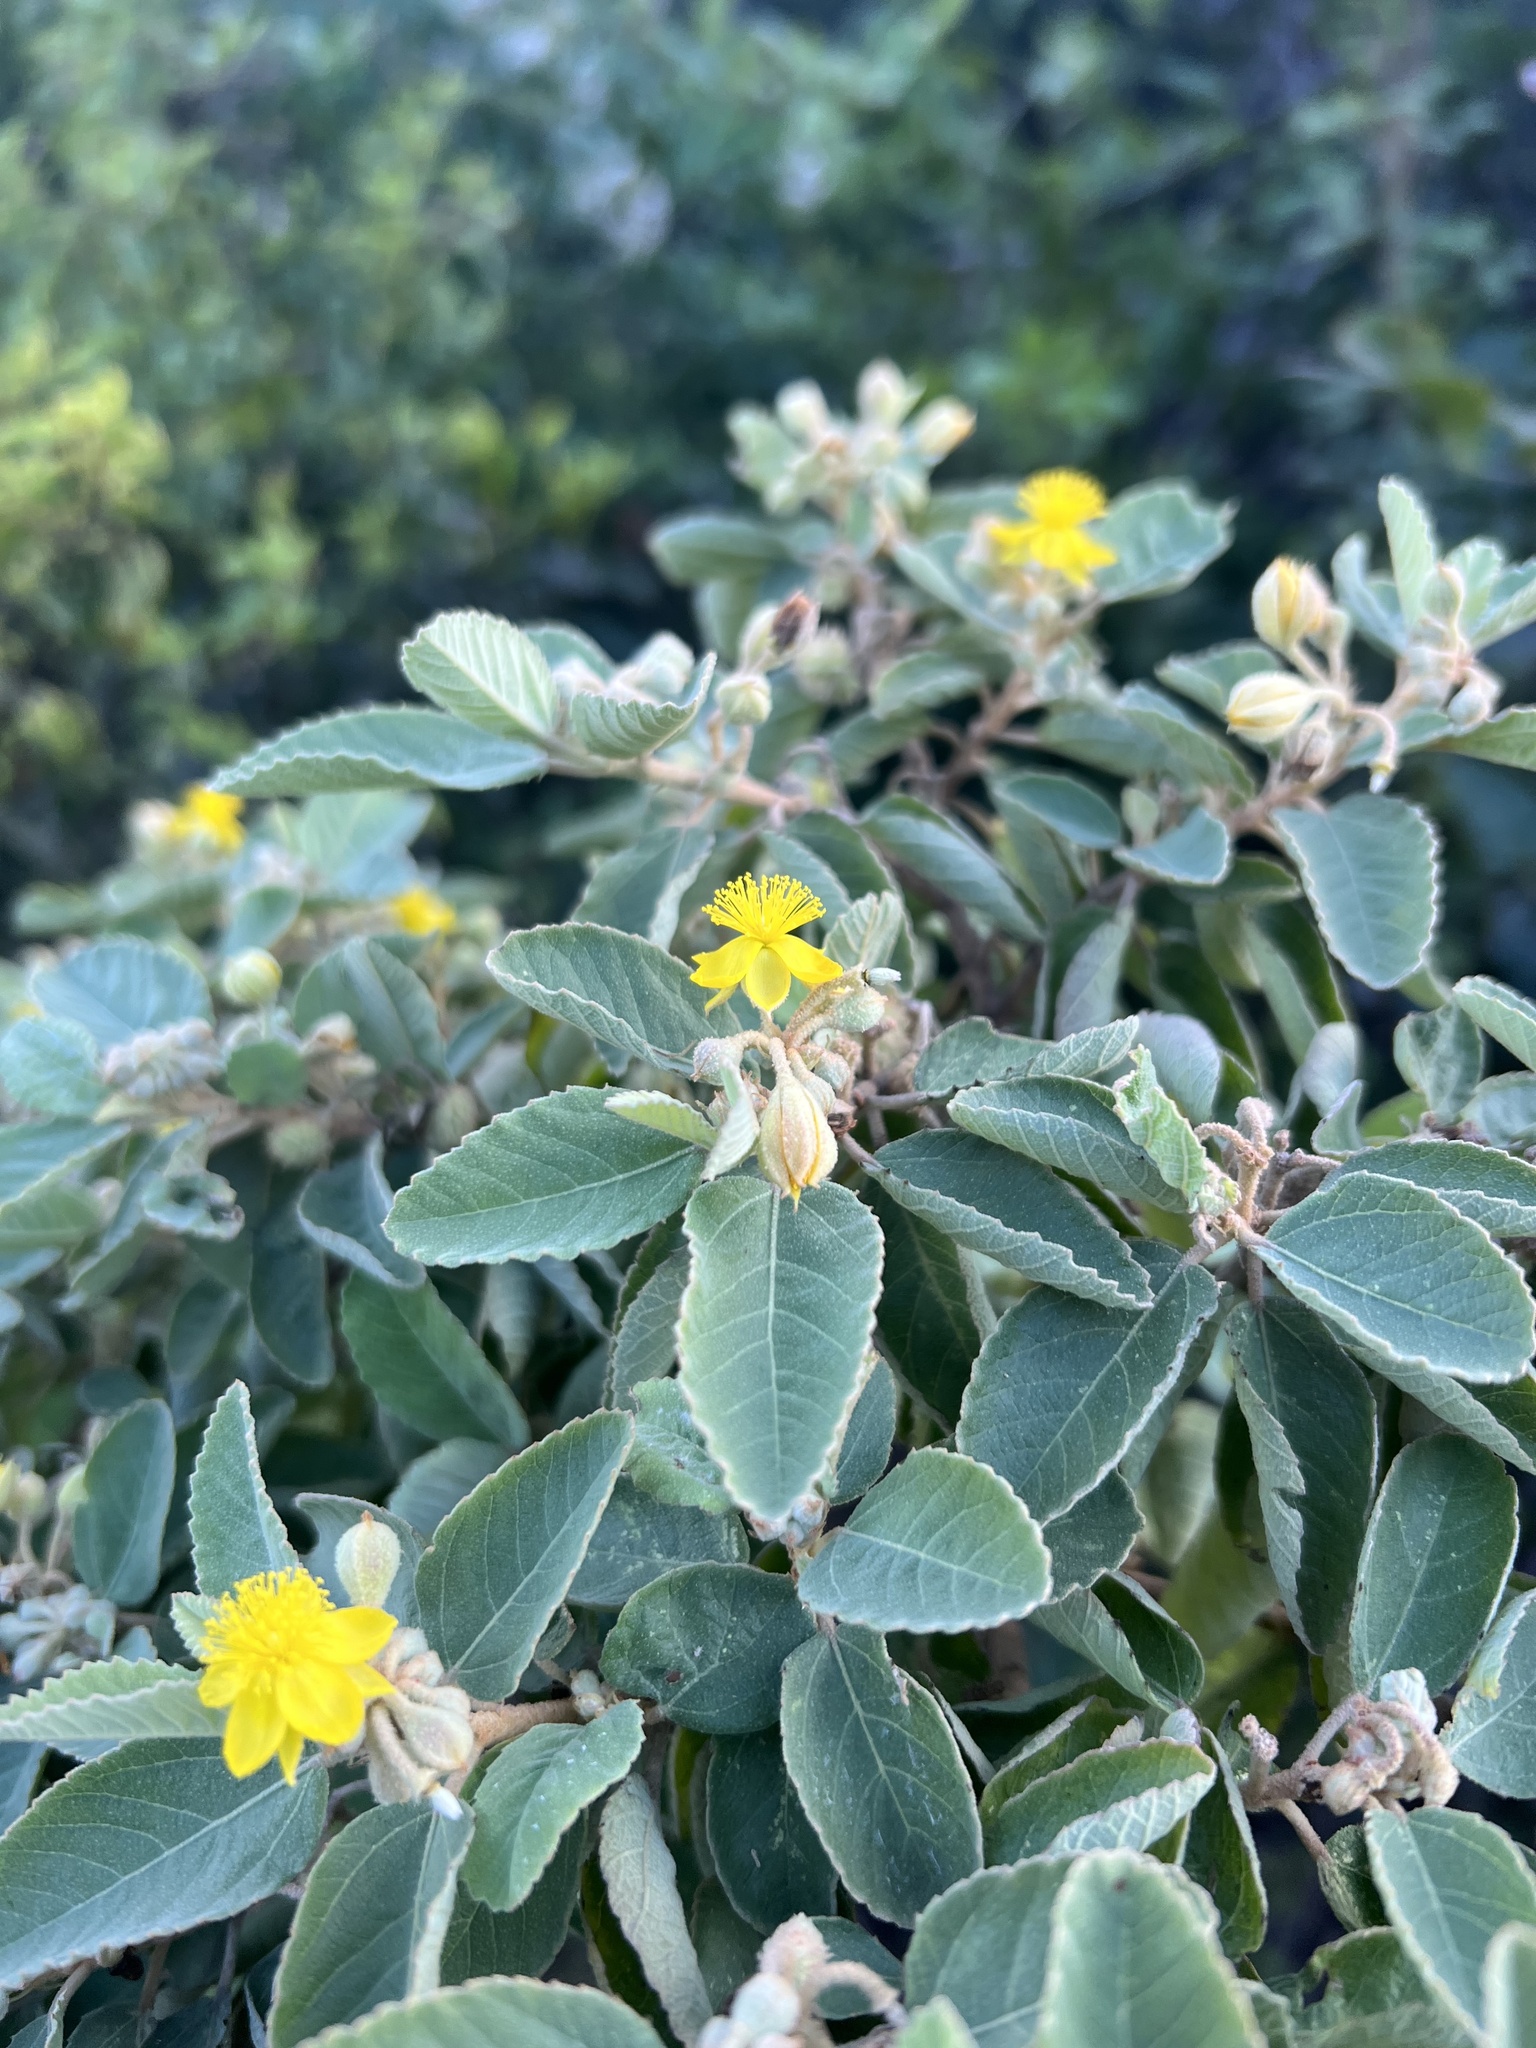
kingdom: Plantae
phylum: Tracheophyta
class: Magnoliopsida
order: Malvales
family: Malvaceae
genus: Corchorus
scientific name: Corchorus hirsutus
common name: Jackswitch
